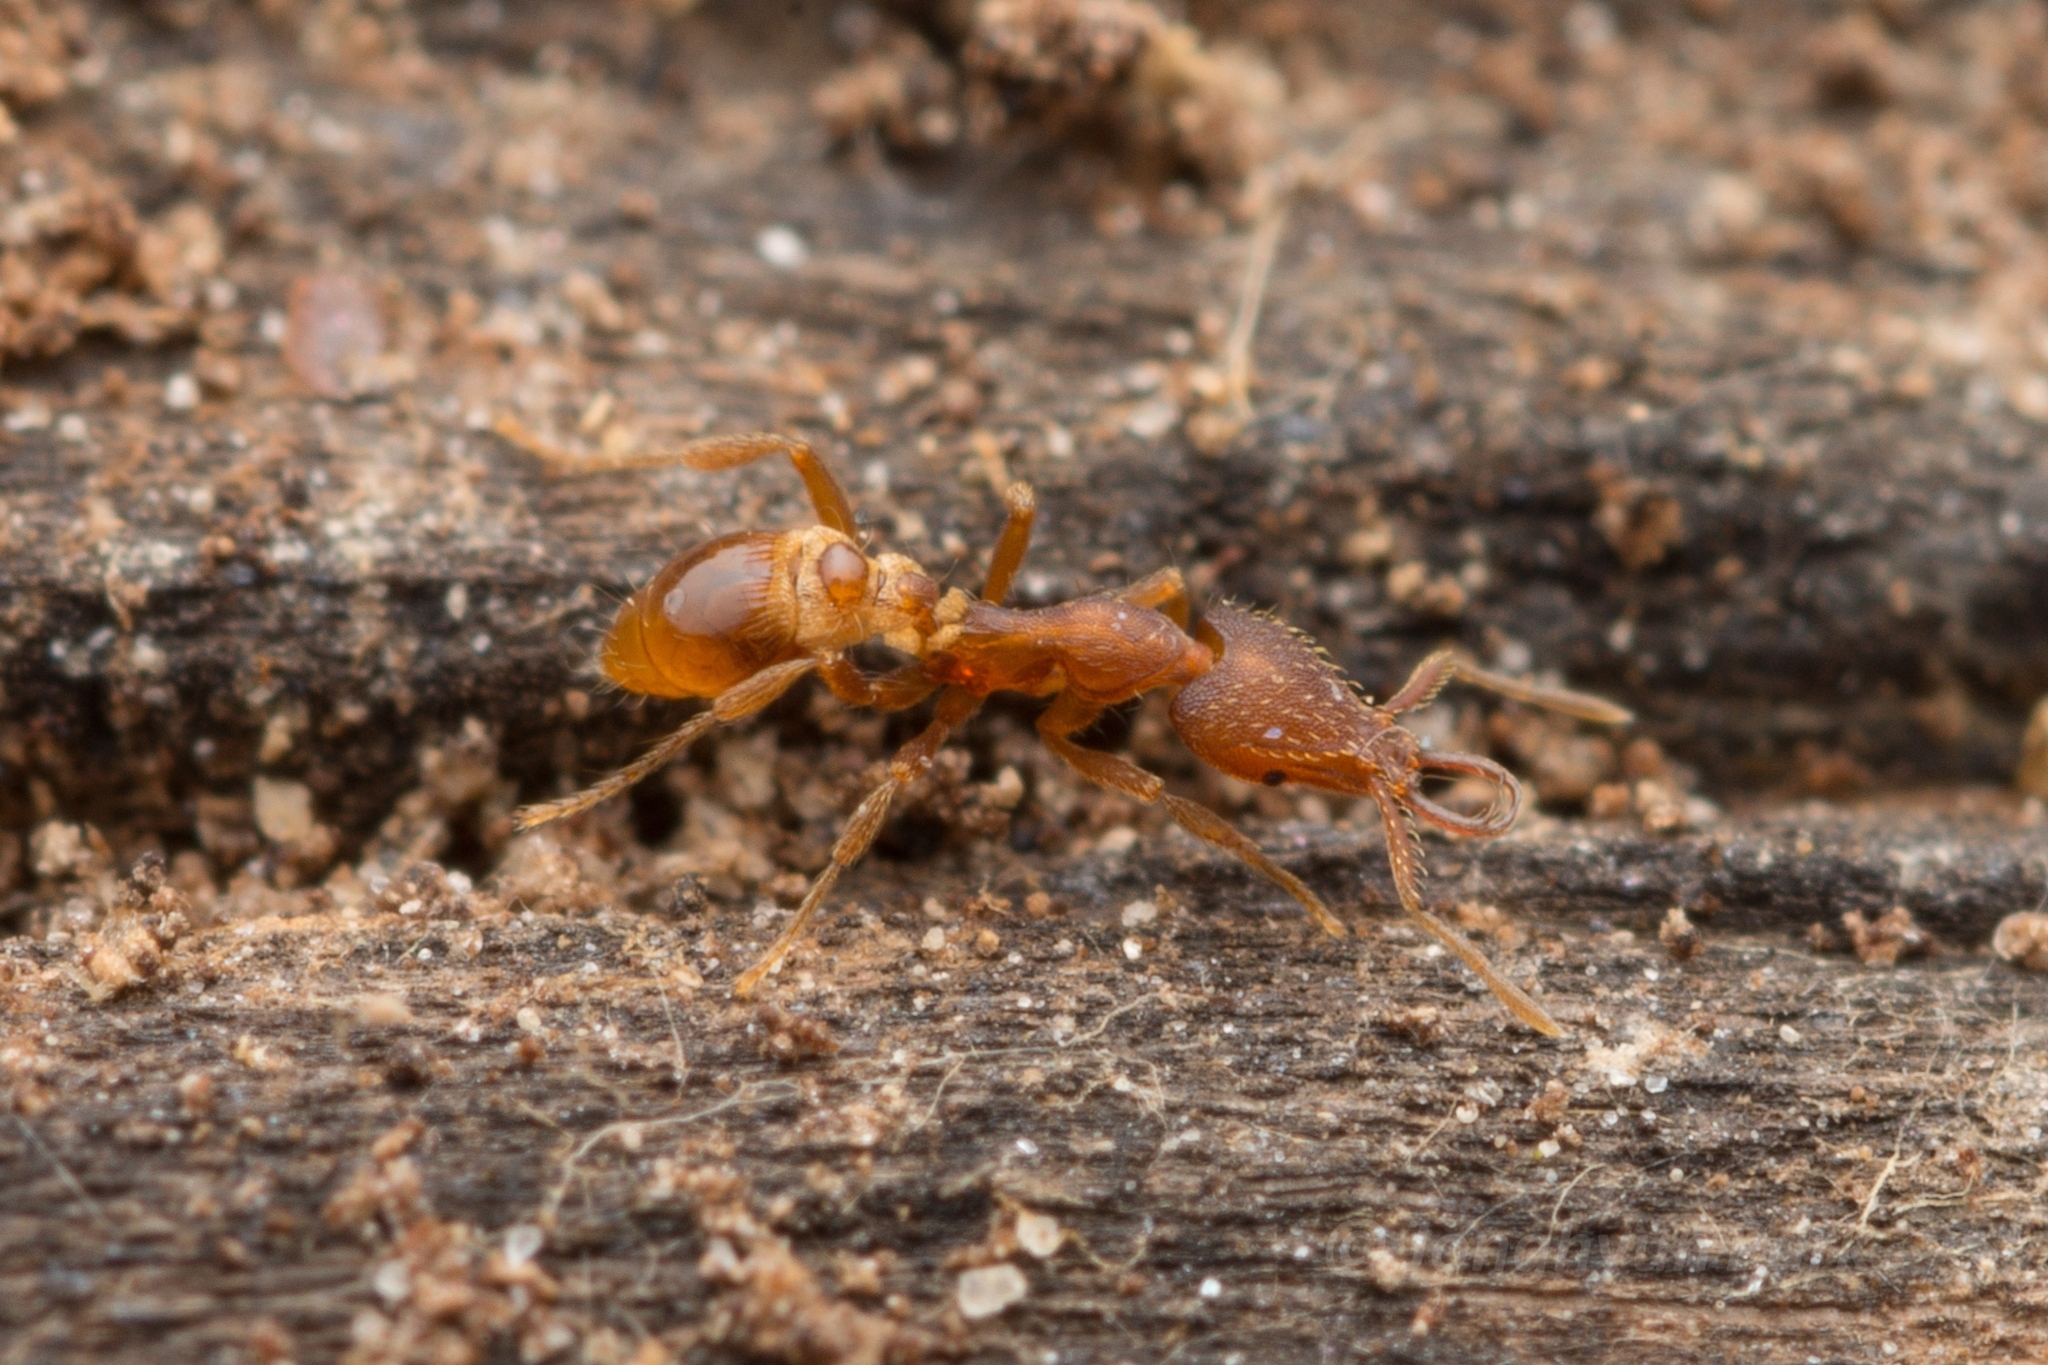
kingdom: Animalia
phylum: Arthropoda
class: Insecta
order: Hymenoptera
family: Formicidae
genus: Strumigenys
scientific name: Strumigenys lewisi
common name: Ant
